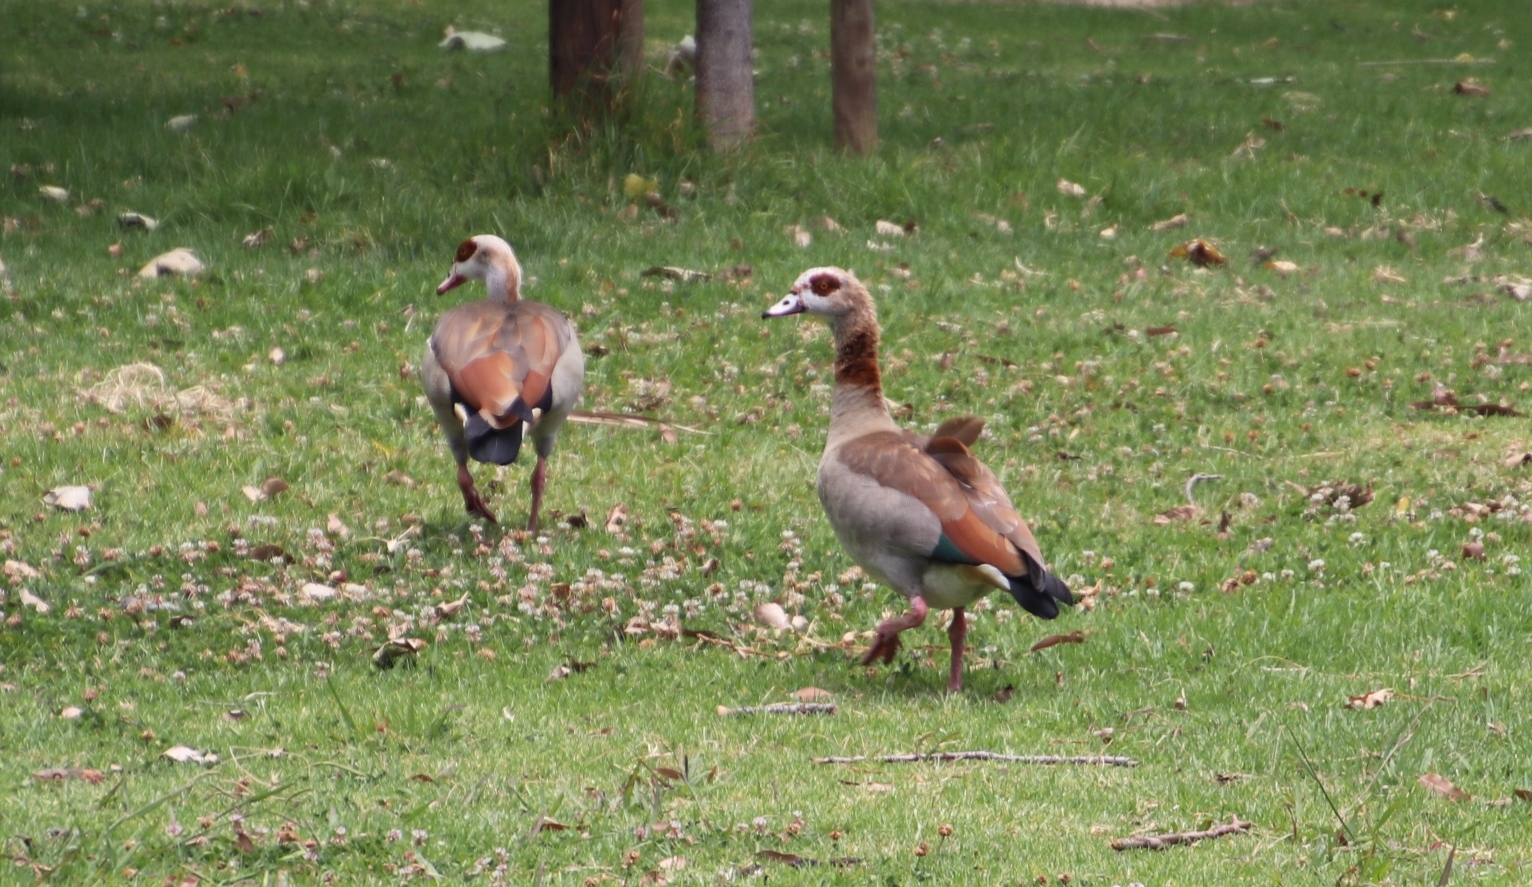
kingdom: Animalia
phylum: Chordata
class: Aves
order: Anseriformes
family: Anatidae
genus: Alopochen
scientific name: Alopochen aegyptiaca
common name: Egyptian goose
